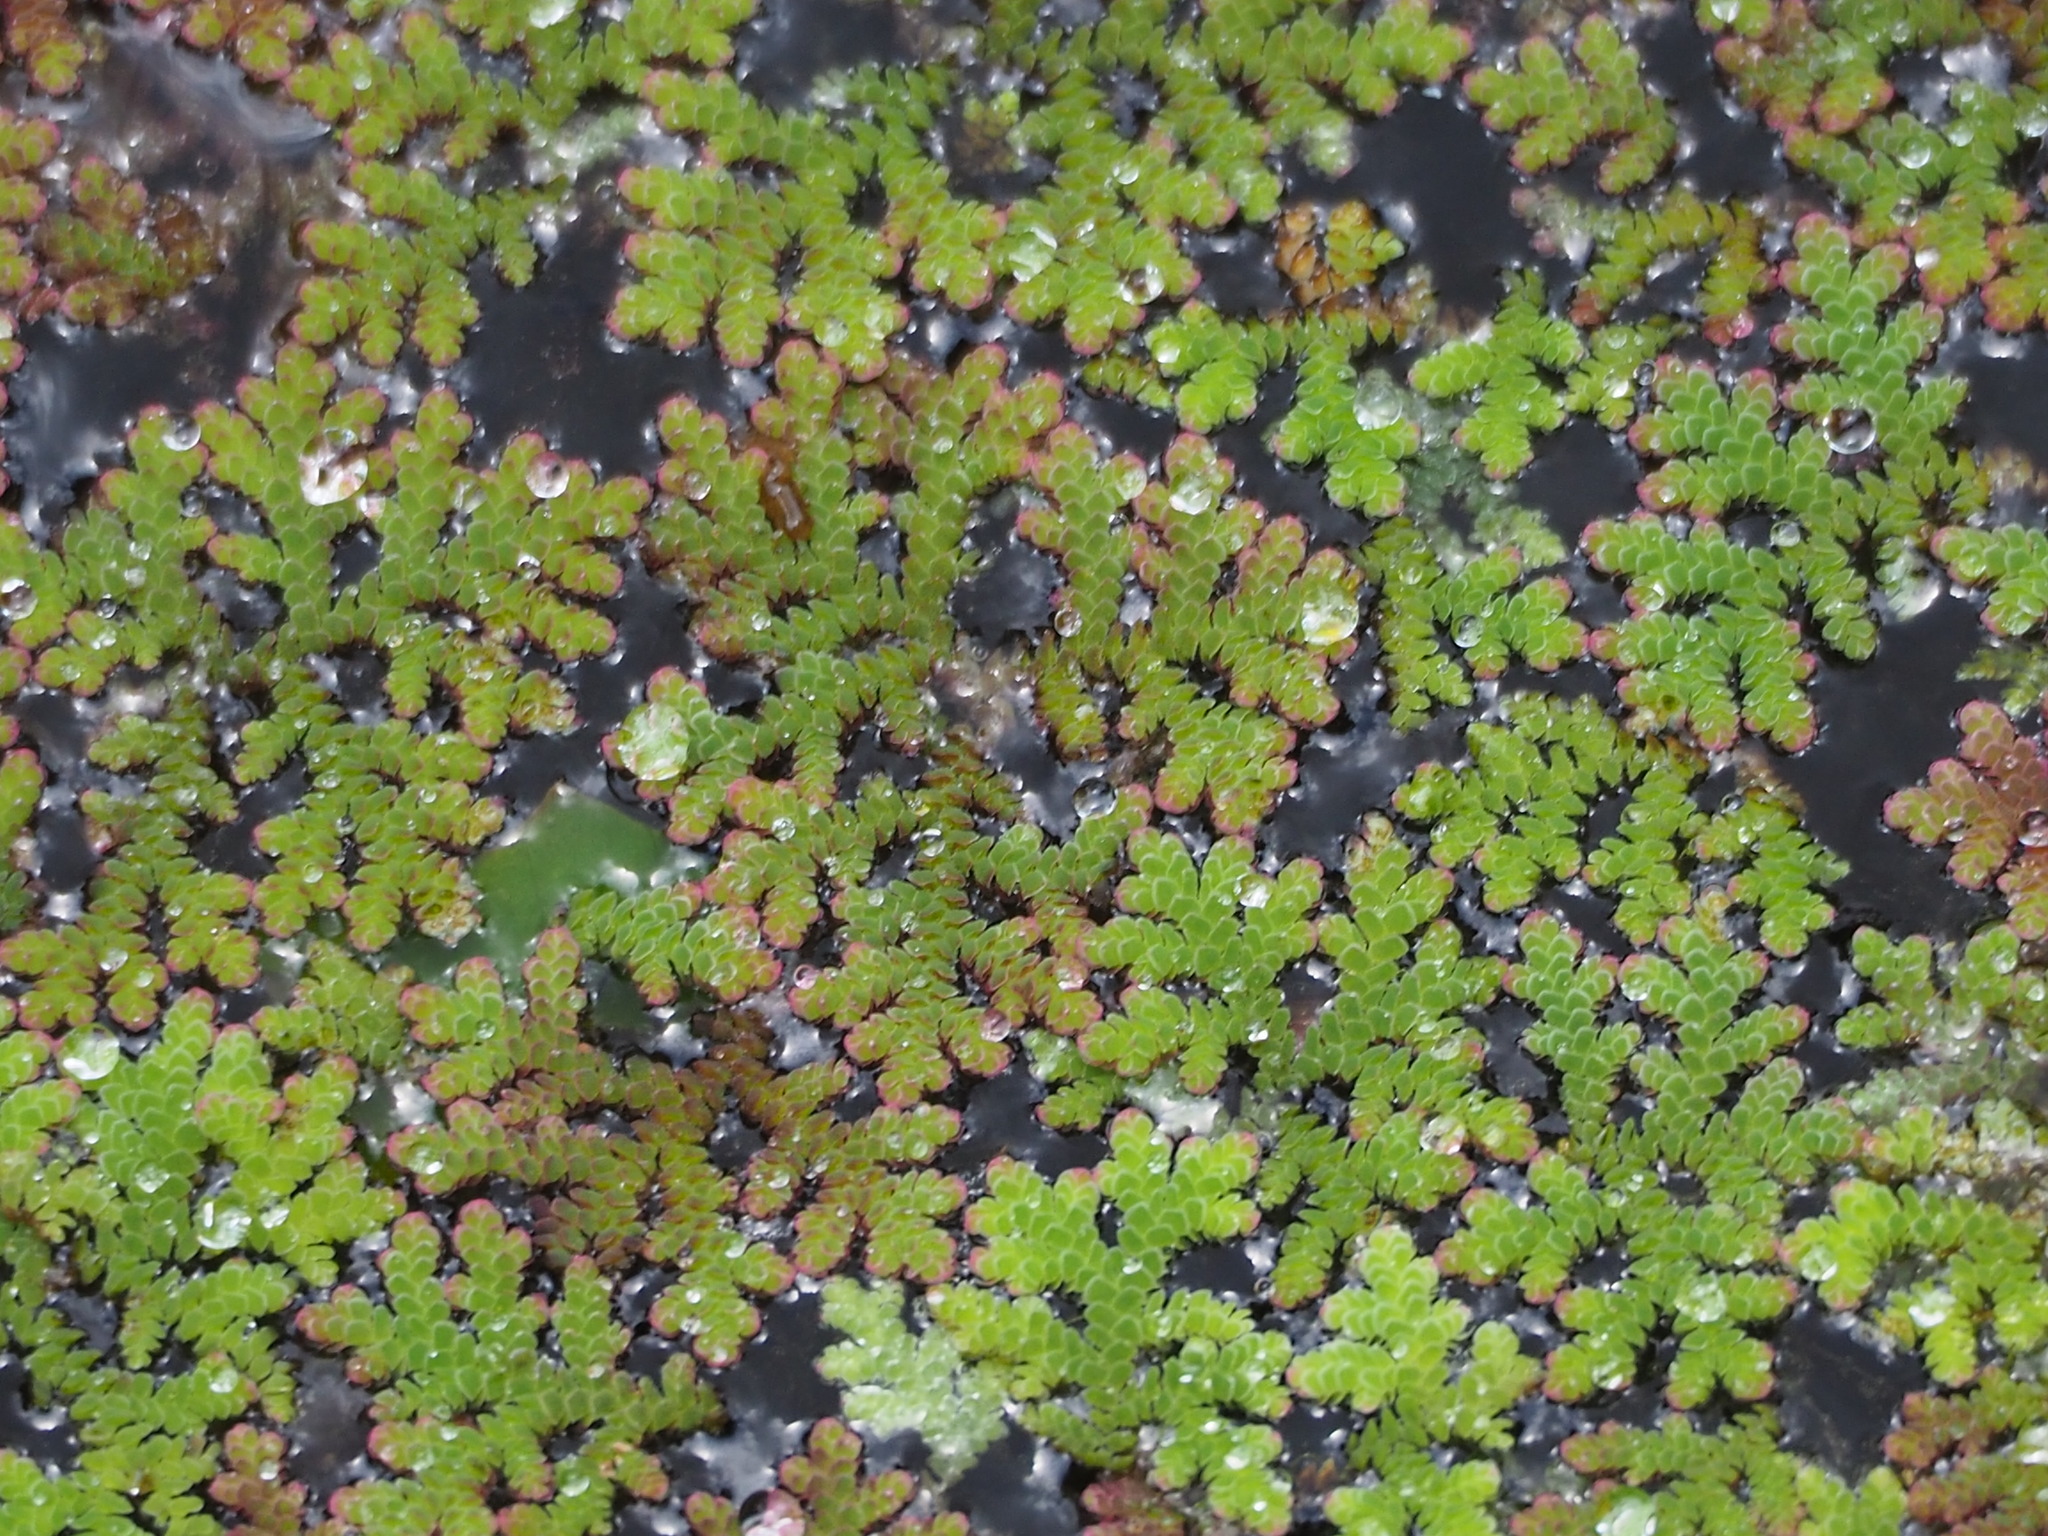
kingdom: Plantae
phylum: Tracheophyta
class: Polypodiopsida
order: Salviniales
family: Salviniaceae
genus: Azolla
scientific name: Azolla cristata
